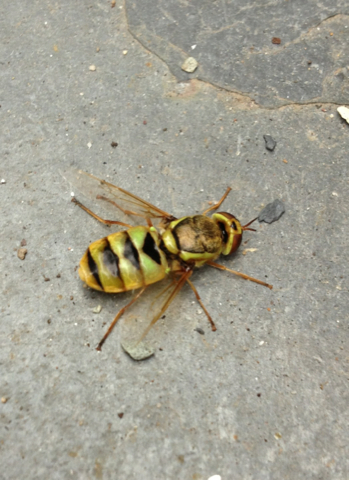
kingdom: Animalia
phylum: Arthropoda
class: Insecta
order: Diptera
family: Stratiomyidae
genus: Odontomyia
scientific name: Odontomyia cincta
